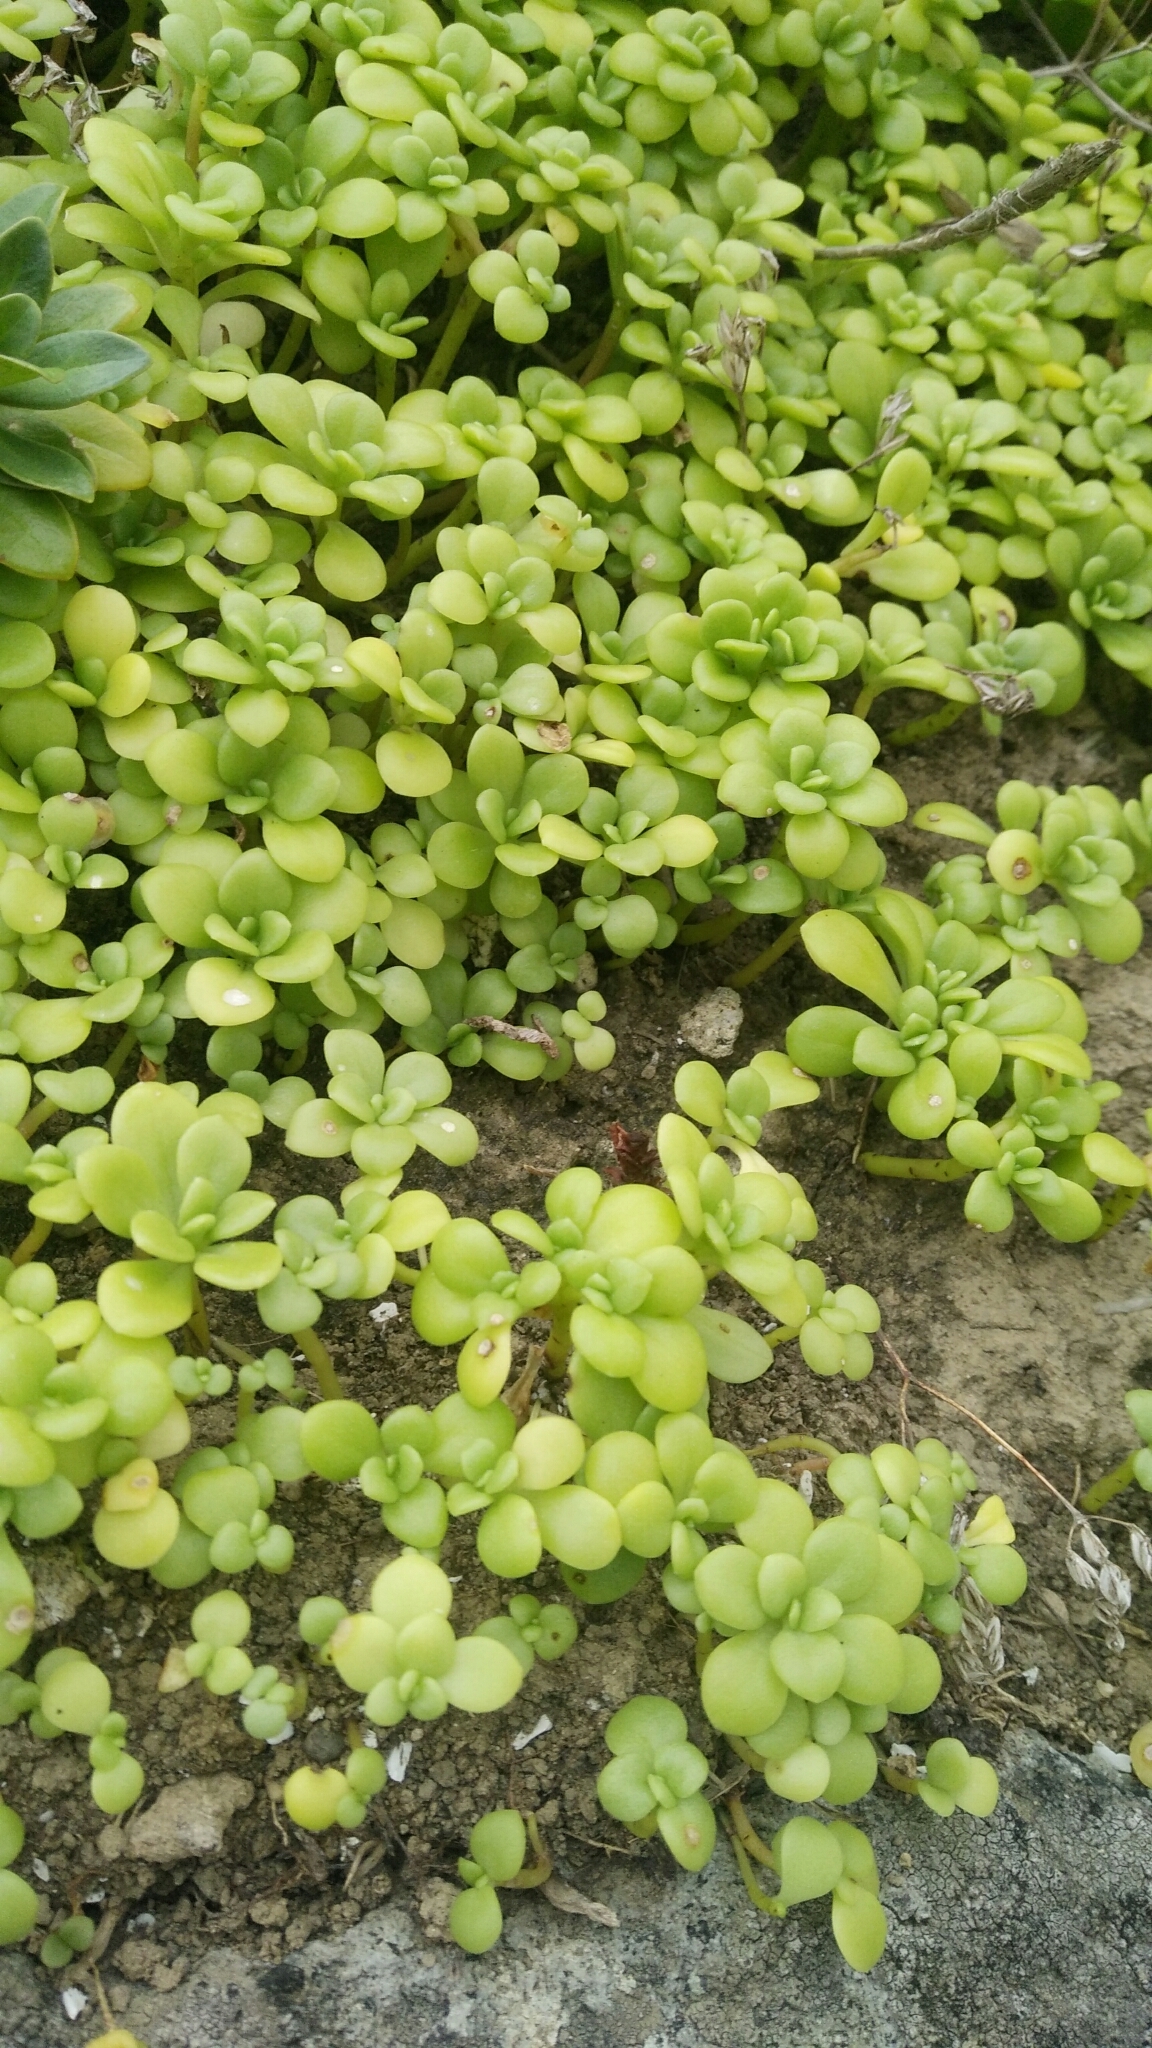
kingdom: Plantae
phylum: Tracheophyta
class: Magnoliopsida
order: Saxifragales
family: Crassulaceae
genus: Sedum
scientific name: Sedum formosanum
